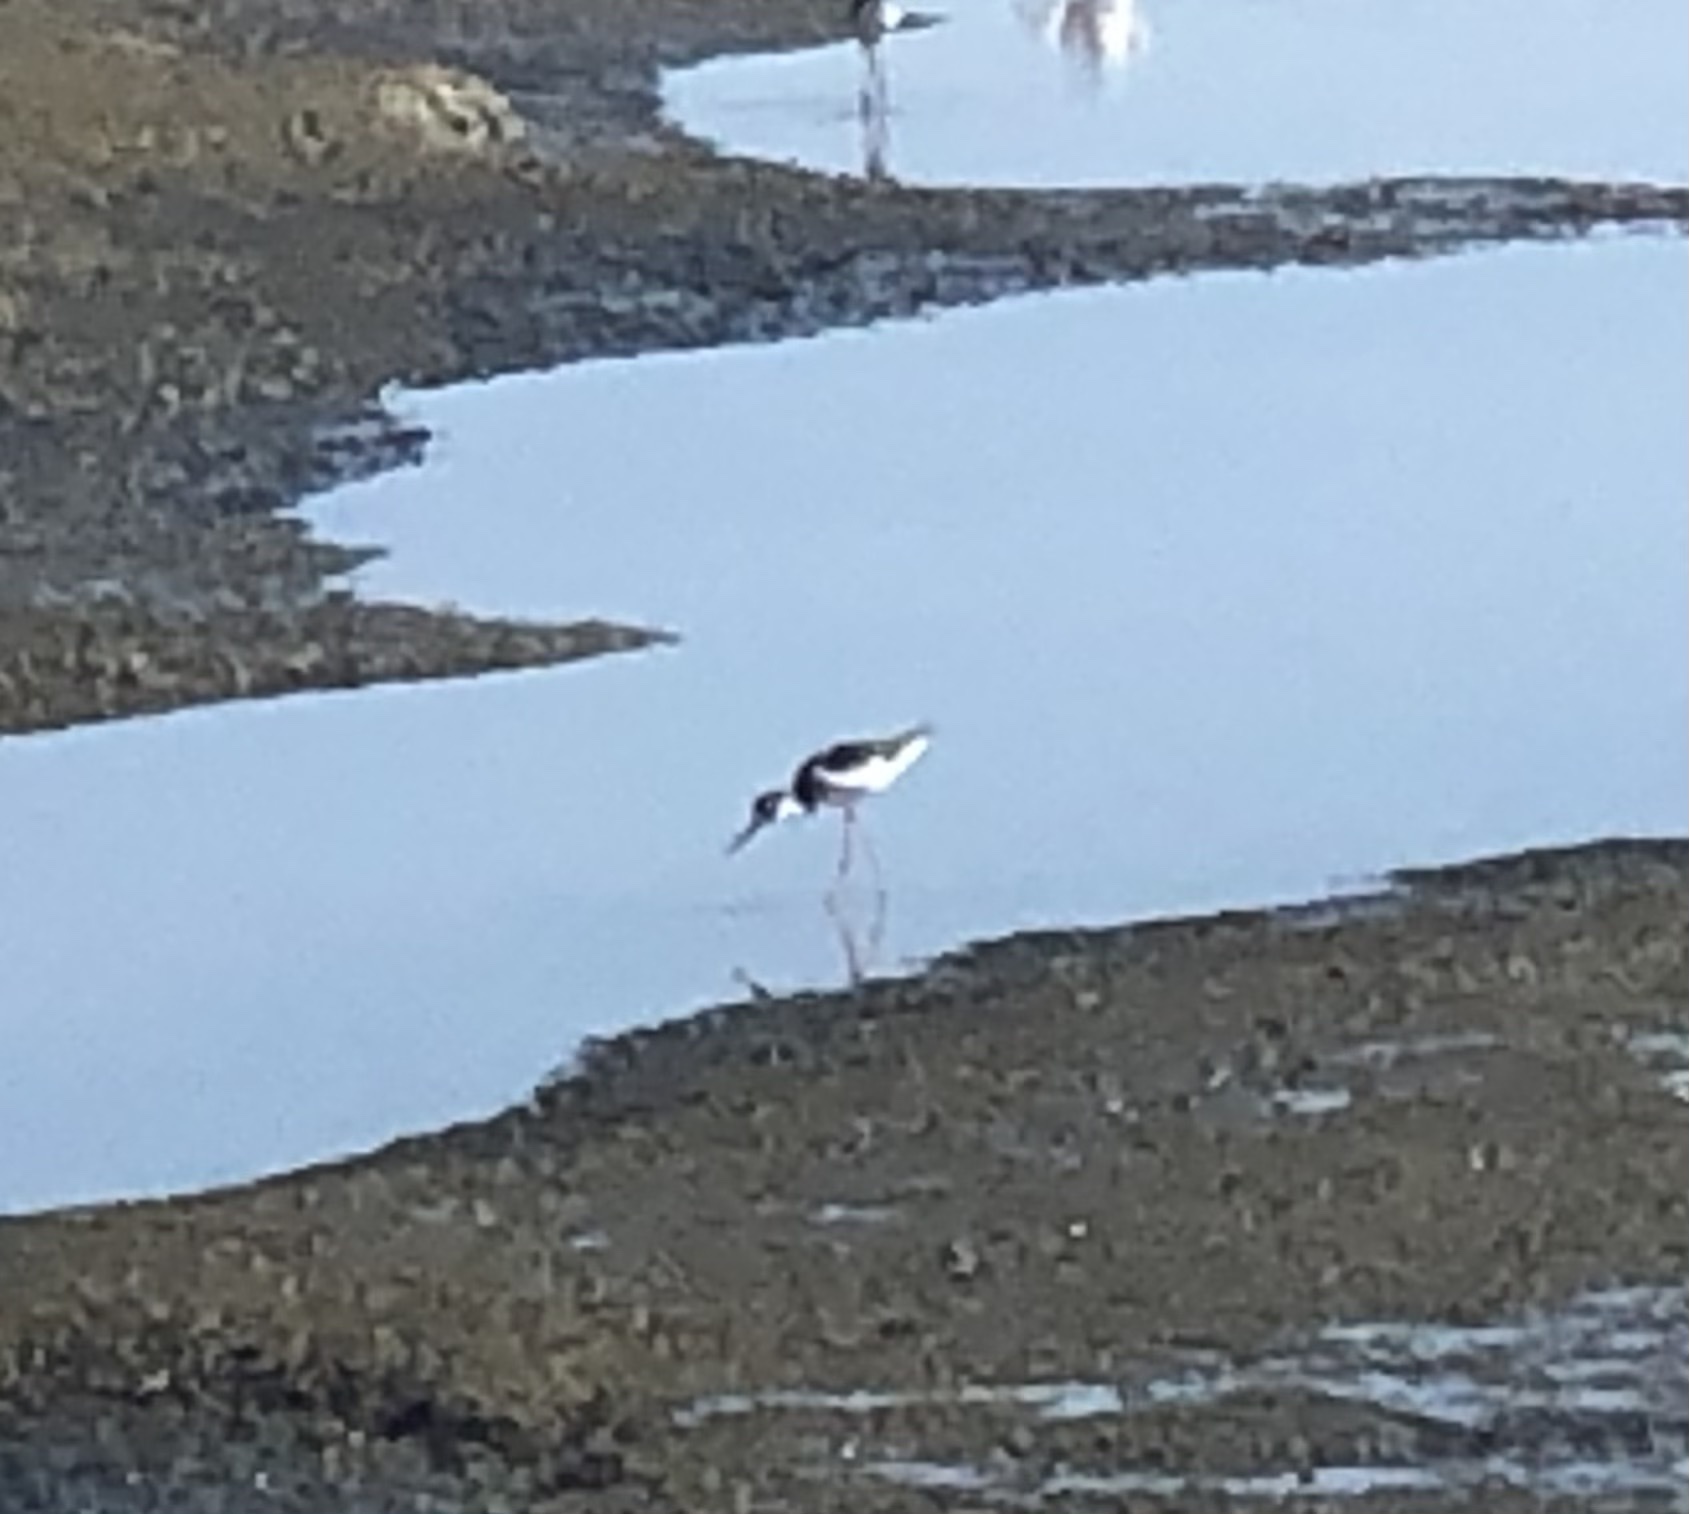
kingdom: Animalia
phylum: Chordata
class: Aves
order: Charadriiformes
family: Recurvirostridae
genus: Himantopus
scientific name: Himantopus mexicanus
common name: Black-necked stilt
